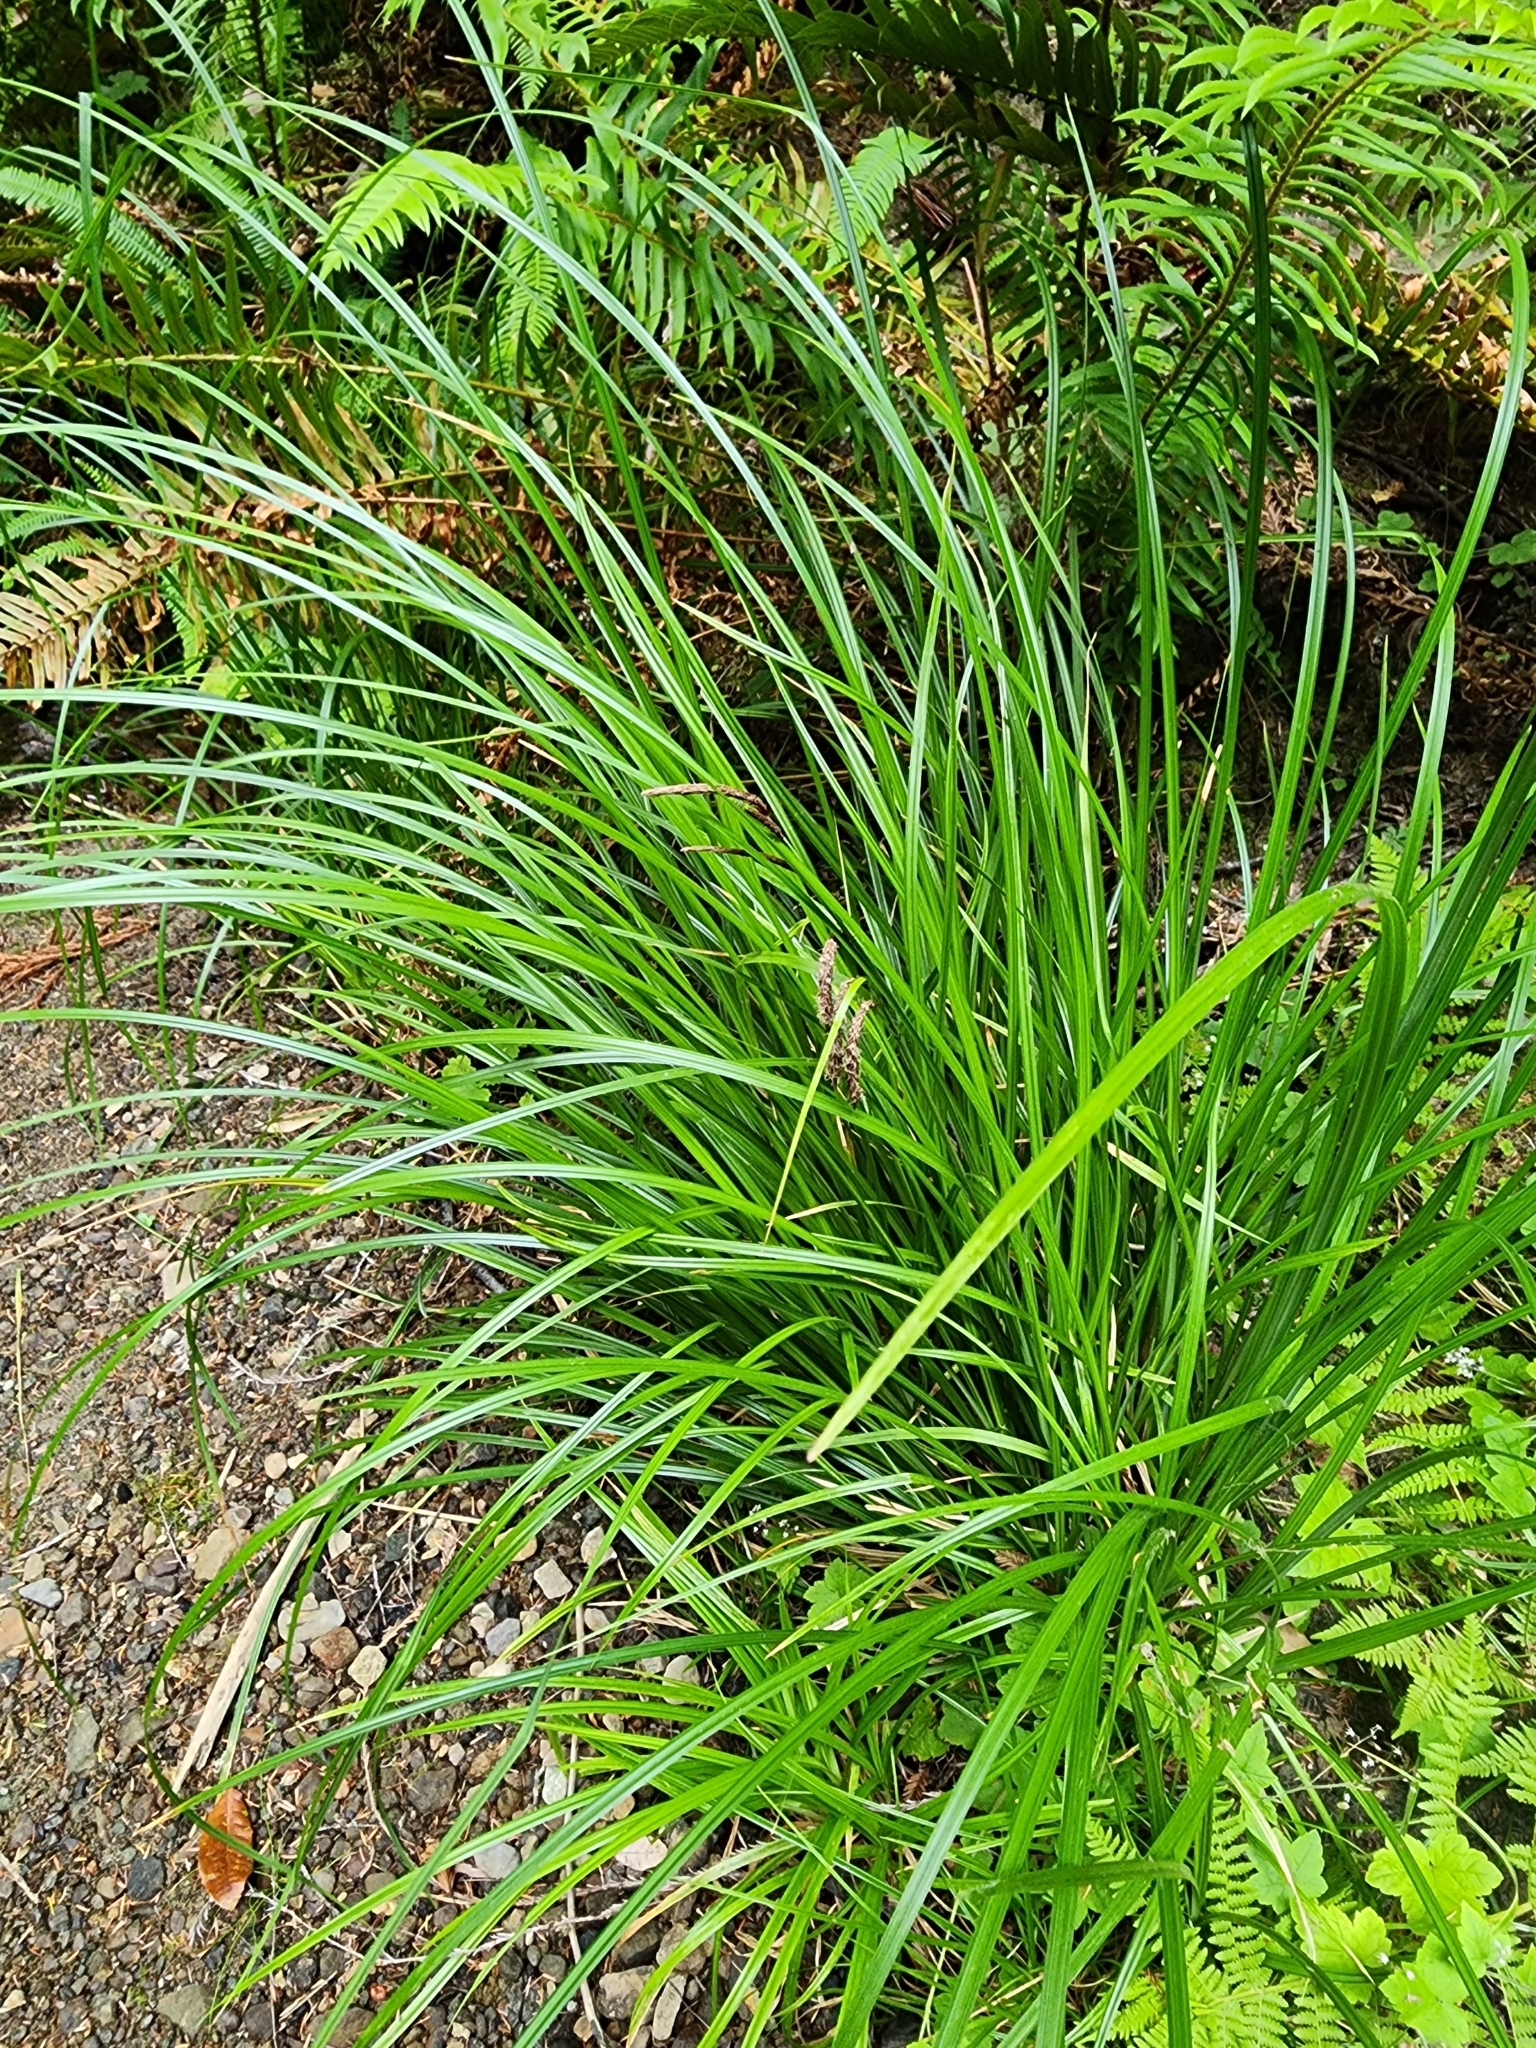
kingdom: Plantae
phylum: Tracheophyta
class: Liliopsida
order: Poales
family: Cyperaceae
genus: Carex
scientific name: Carex obnupta
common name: Slough sedge
